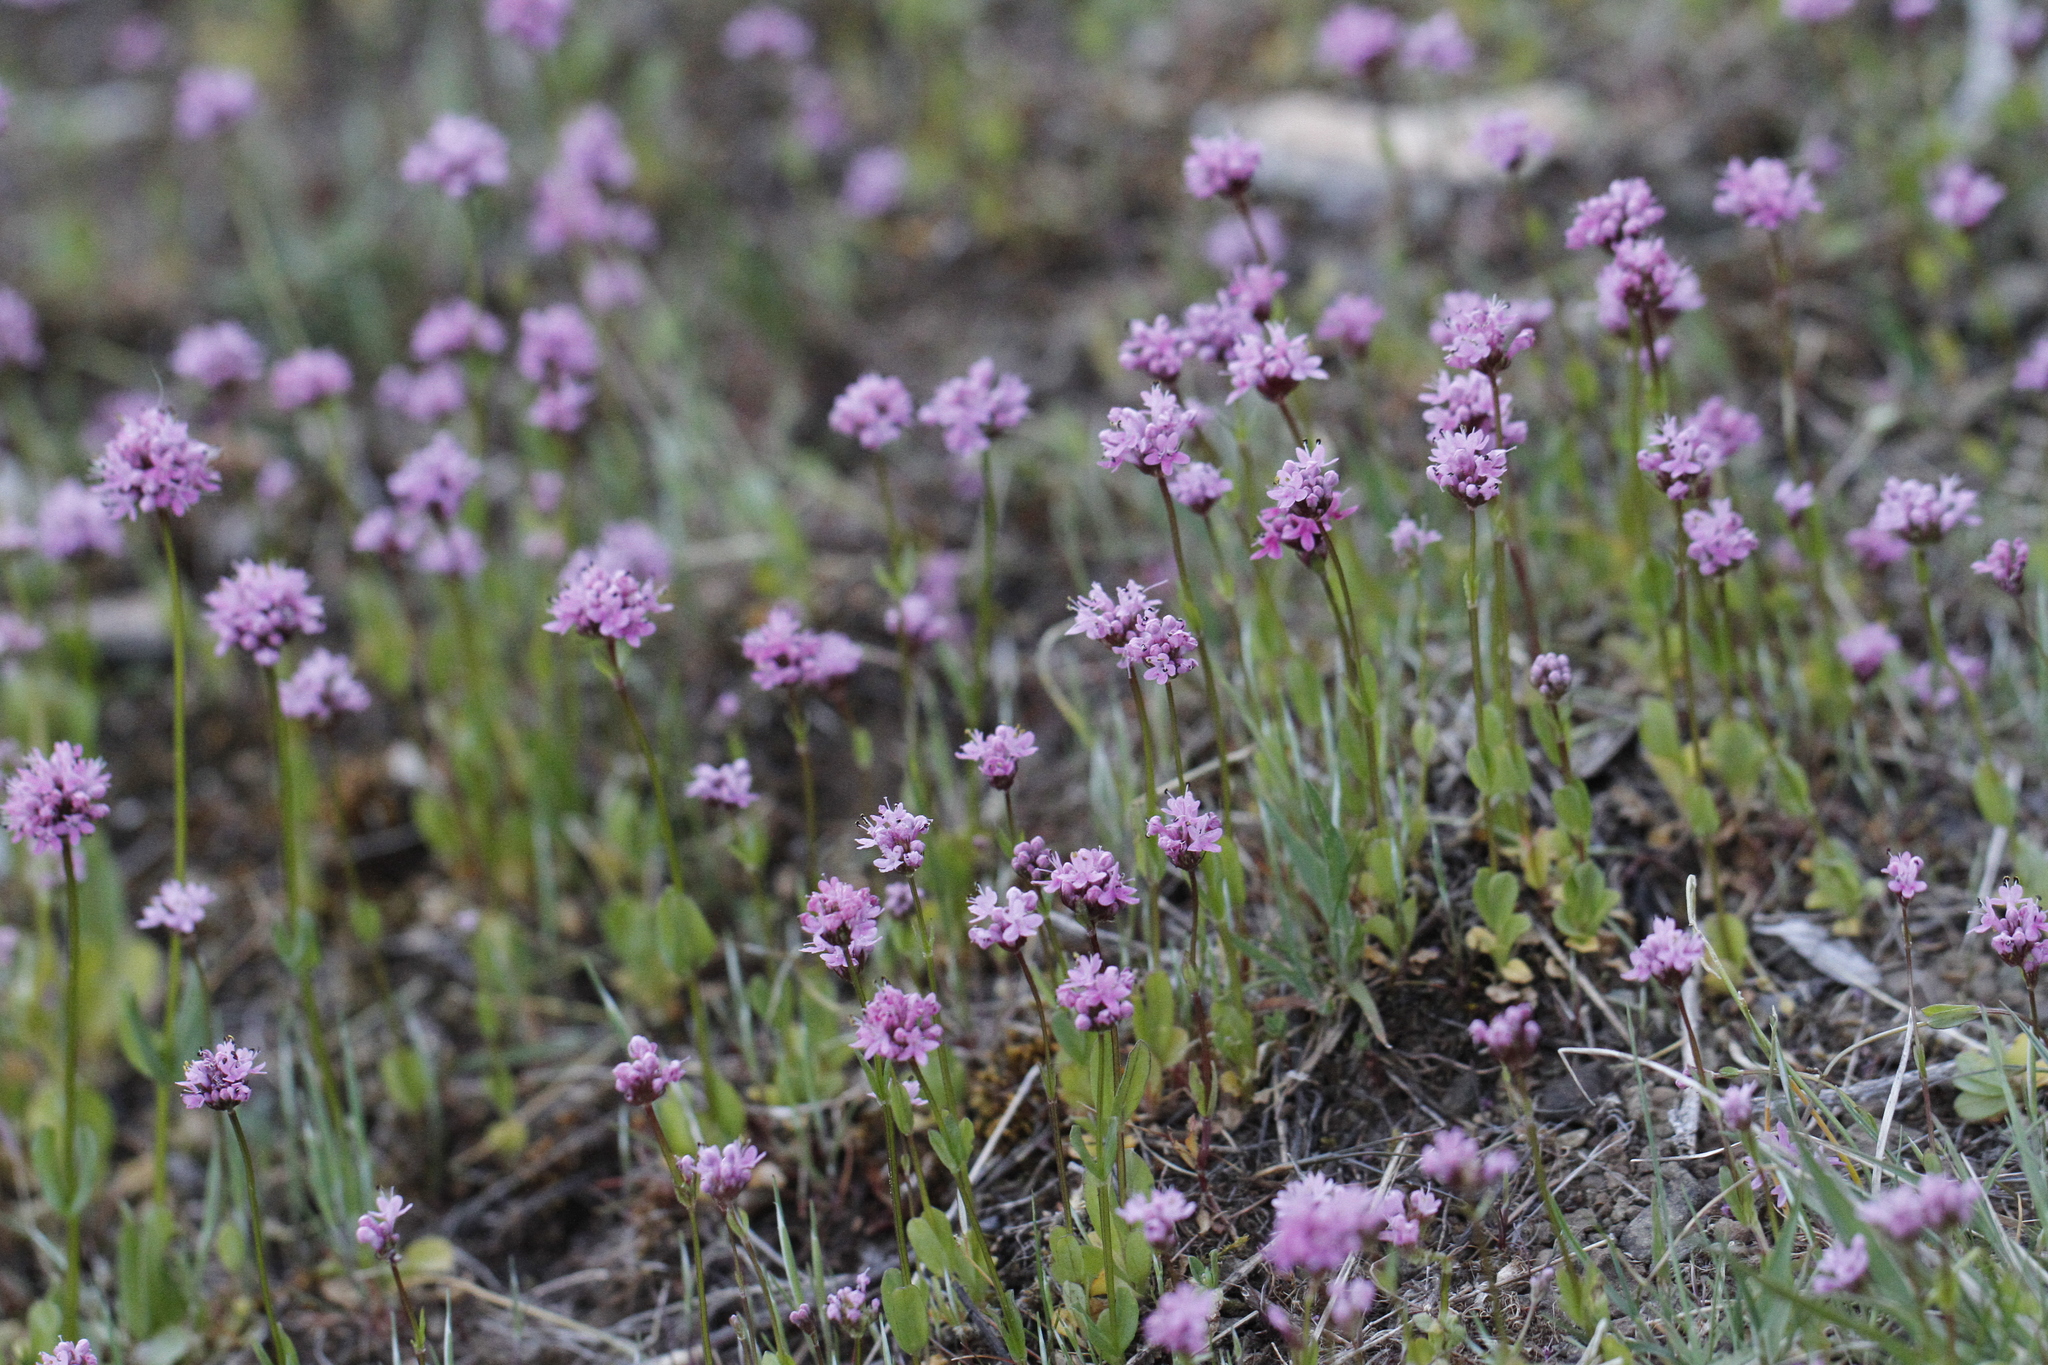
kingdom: Plantae
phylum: Tracheophyta
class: Magnoliopsida
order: Dipsacales
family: Caprifoliaceae
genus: Plectritis
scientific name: Plectritis congesta
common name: Pink plectritis
